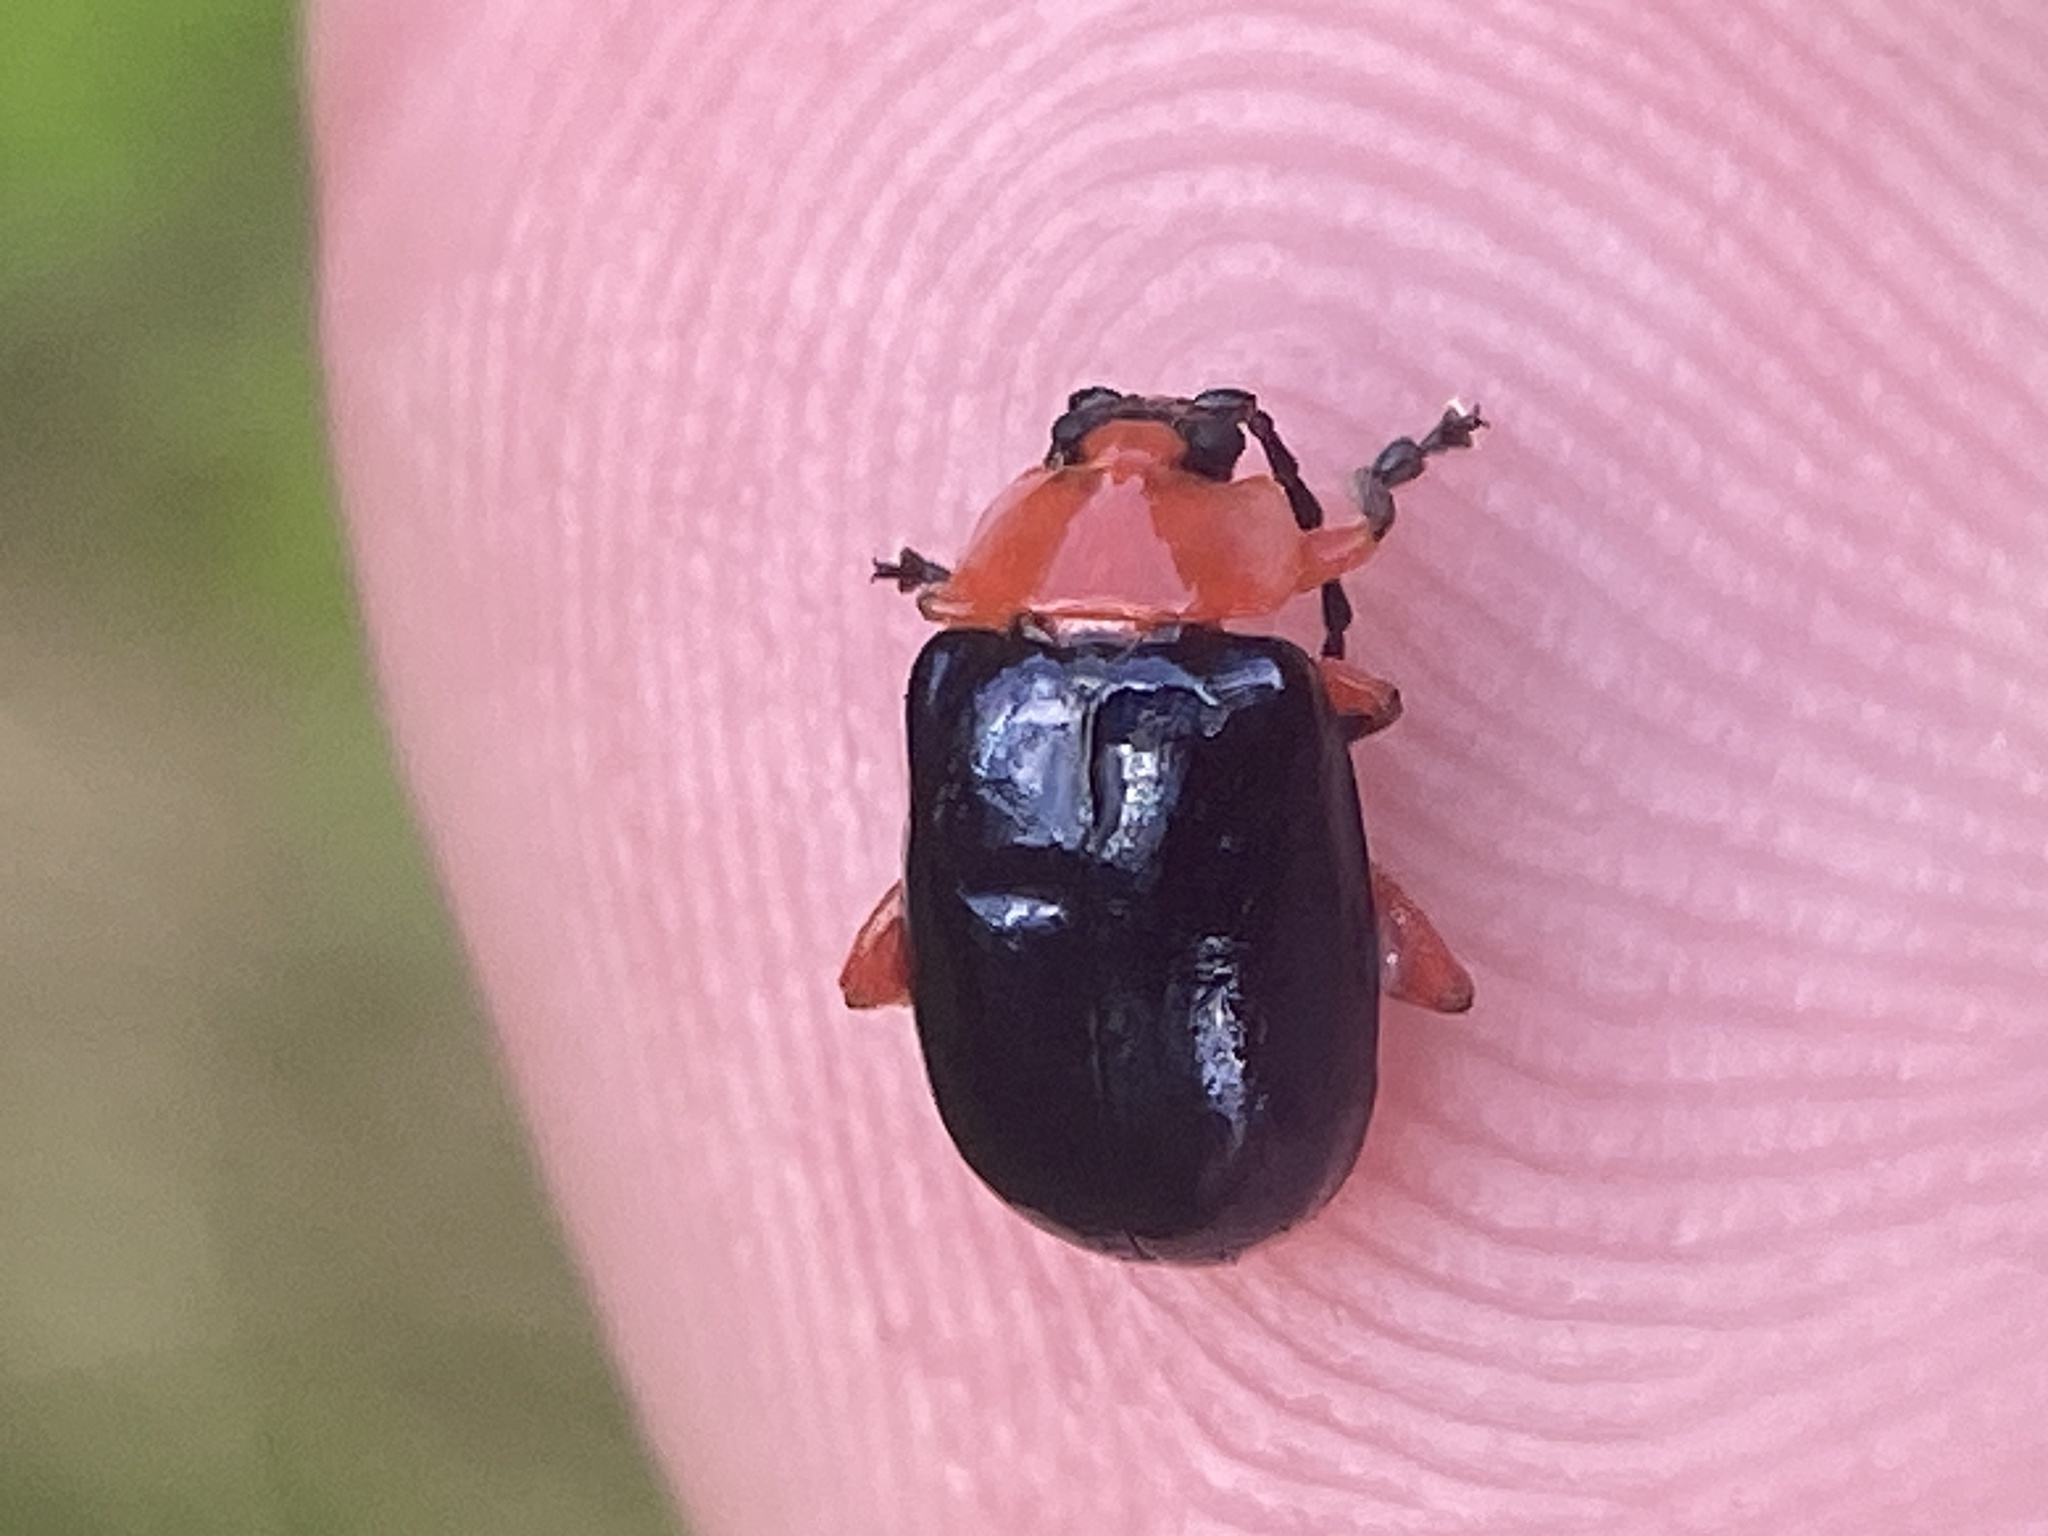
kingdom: Animalia
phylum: Arthropoda
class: Insecta
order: Coleoptera
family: Chrysomelidae
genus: Asphaera
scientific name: Asphaera lustrans
